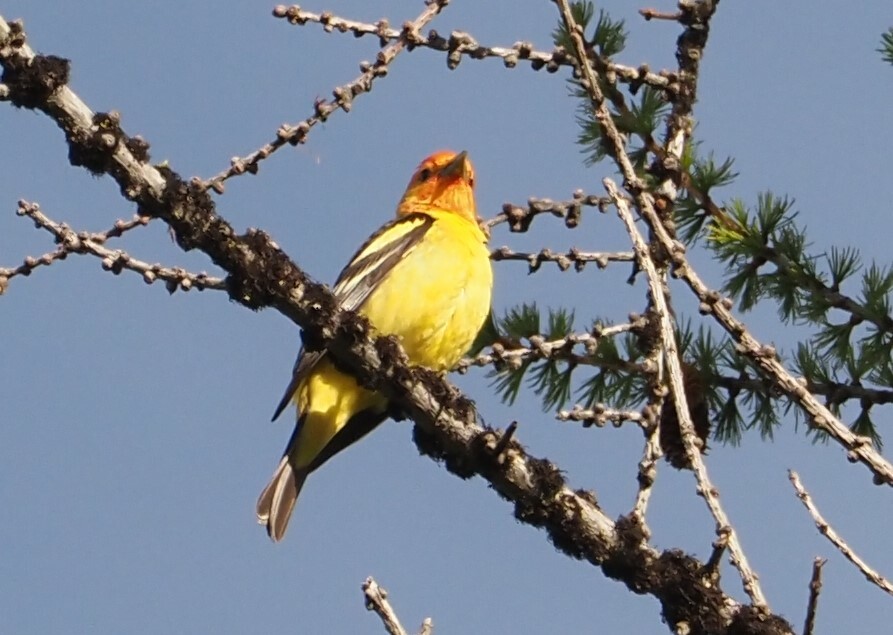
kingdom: Animalia
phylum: Chordata
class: Aves
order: Passeriformes
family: Cardinalidae
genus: Piranga
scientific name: Piranga ludoviciana
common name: Western tanager
